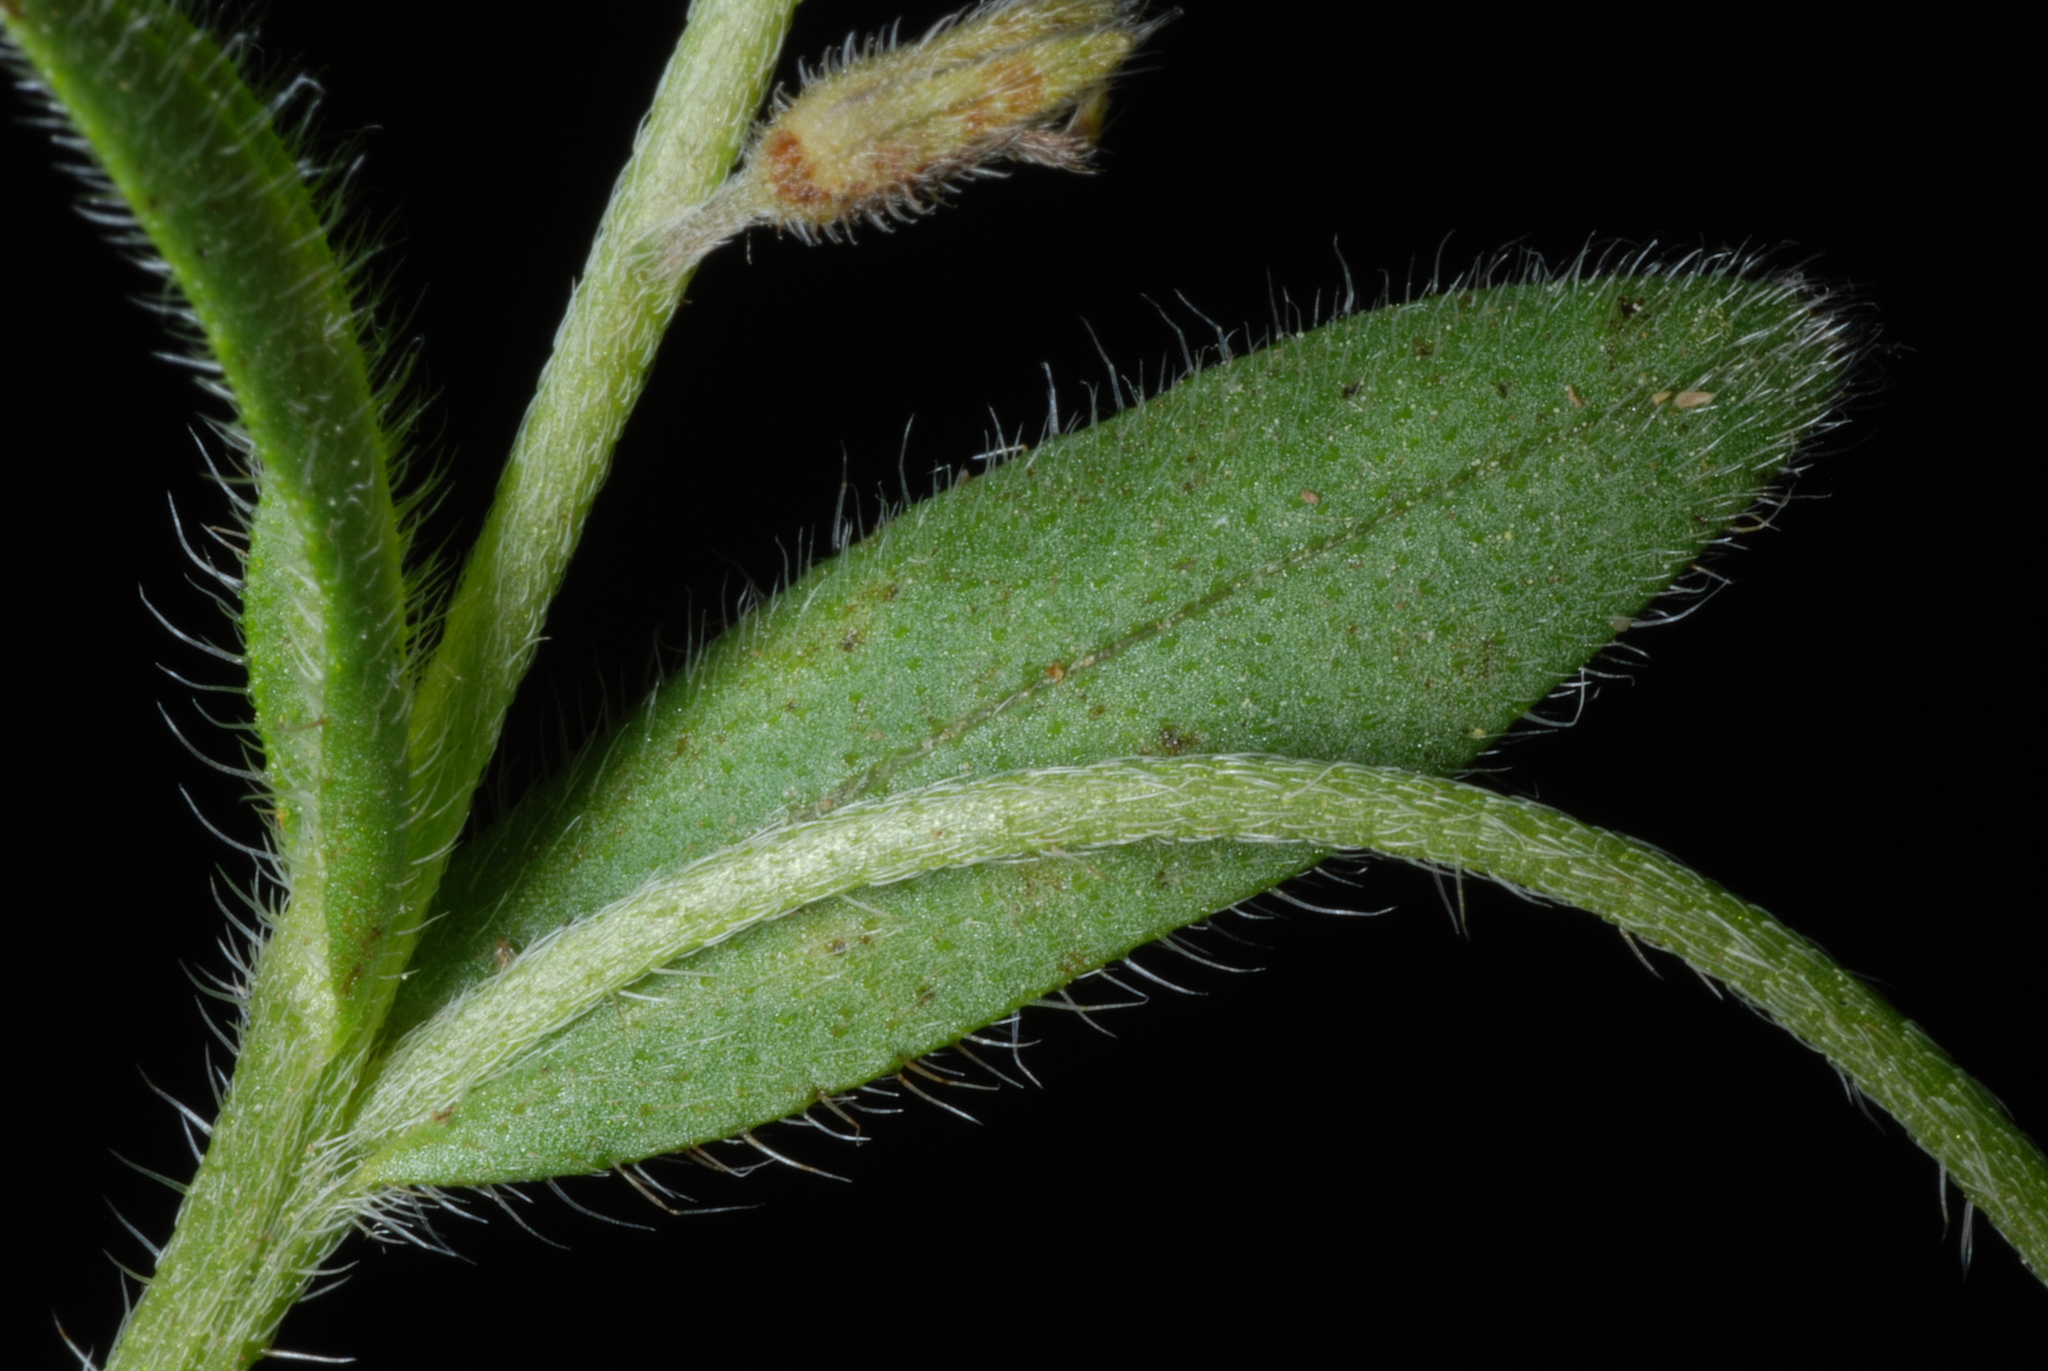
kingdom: Plantae
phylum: Tracheophyta
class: Magnoliopsida
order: Boraginales
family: Boraginaceae
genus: Myosotis
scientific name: Myosotis discolor
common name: Changing forget-me-not
